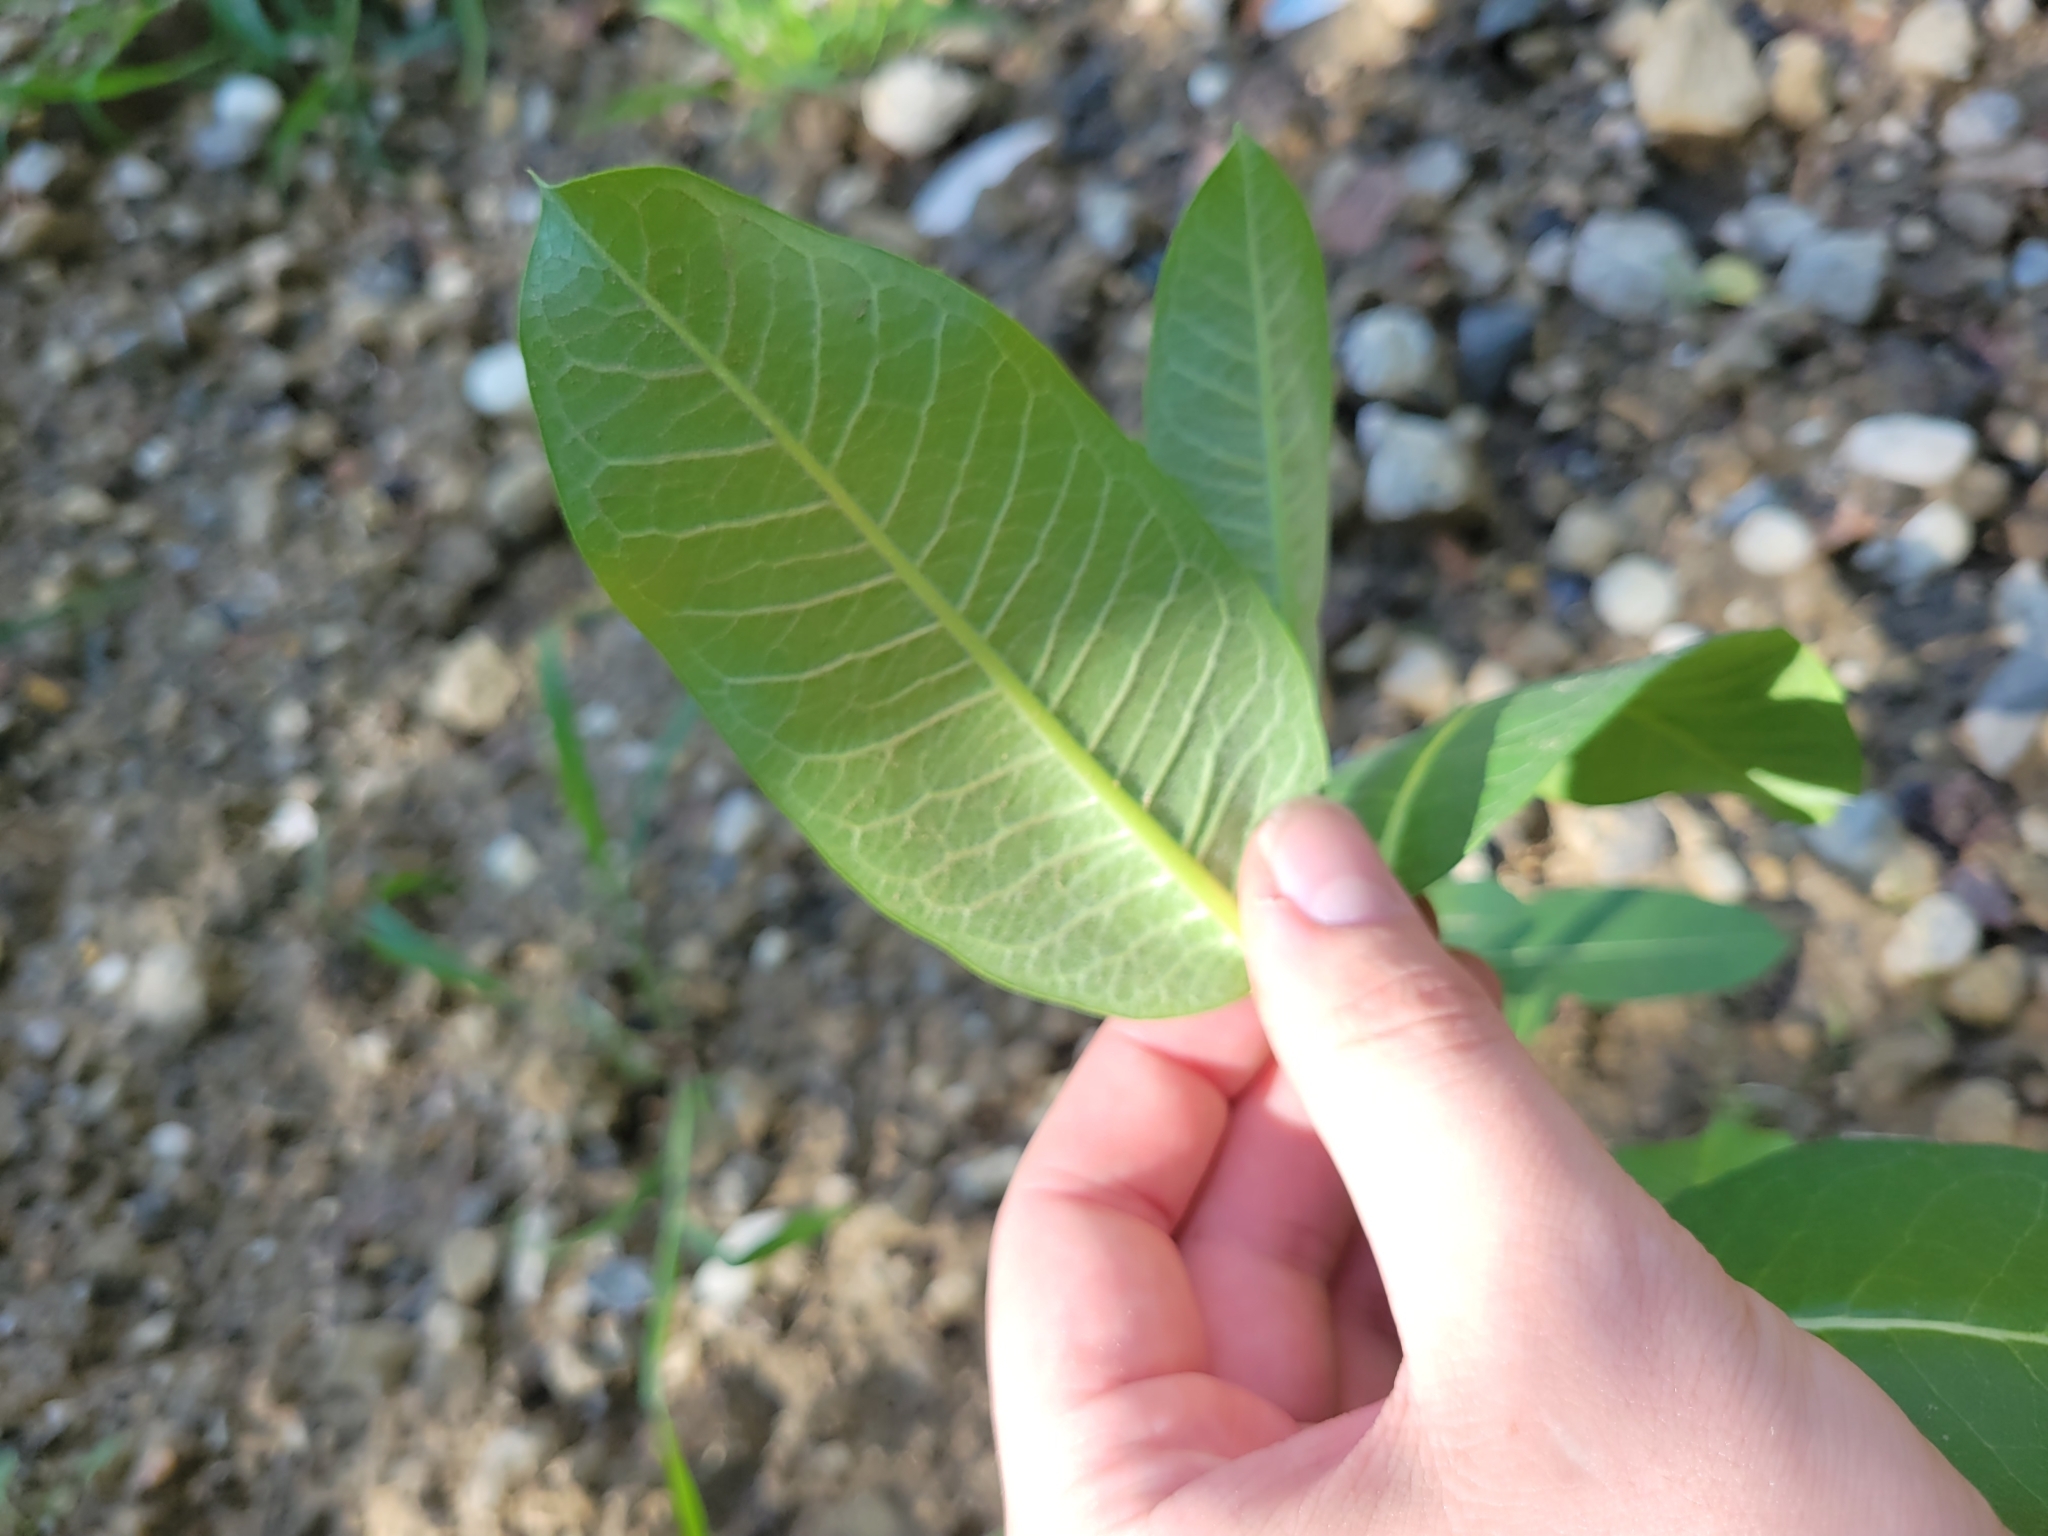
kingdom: Plantae
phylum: Tracheophyta
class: Magnoliopsida
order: Gentianales
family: Apocynaceae
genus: Asclepias
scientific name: Asclepias syriaca
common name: Common milkweed
